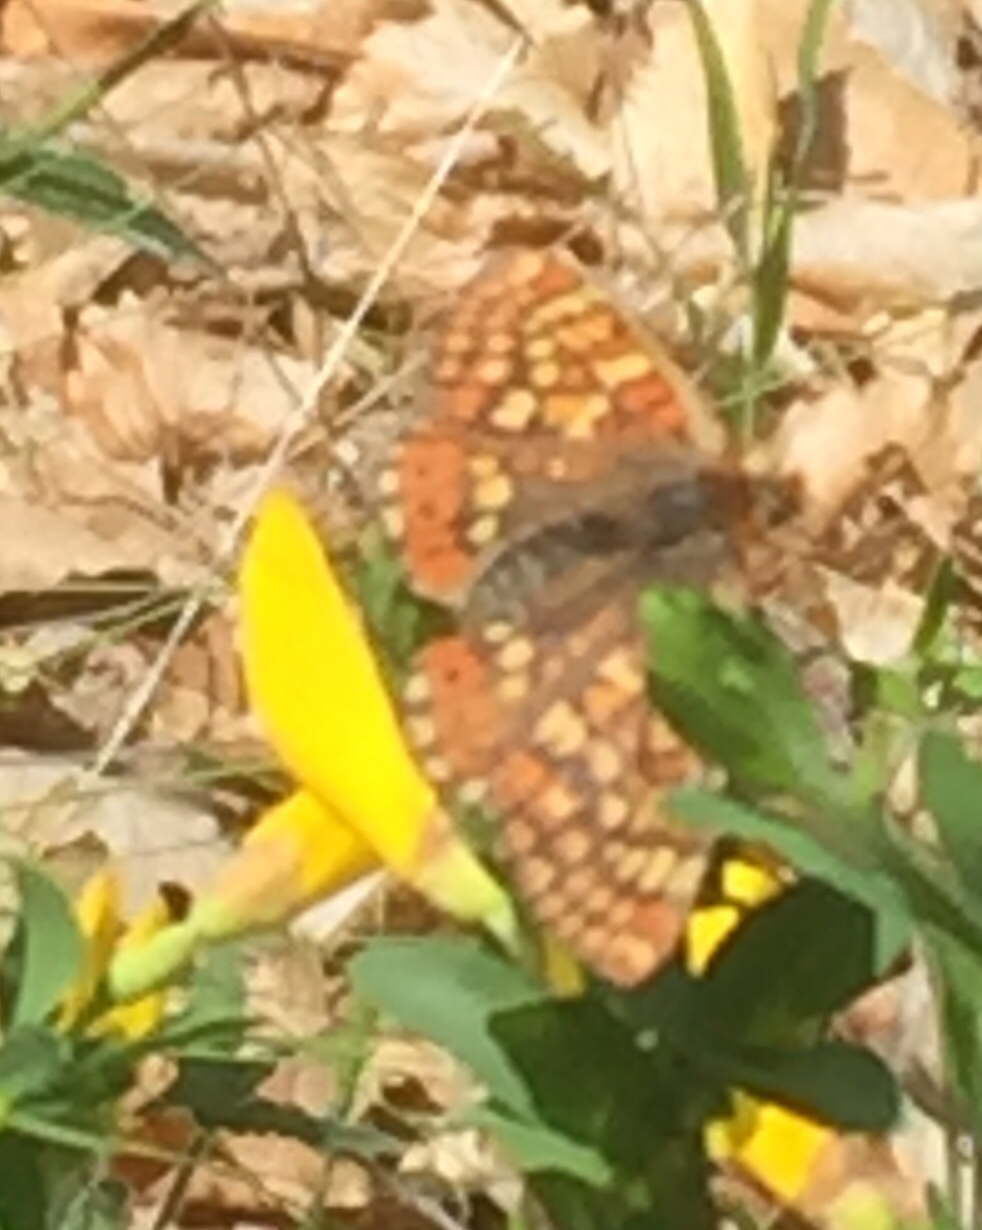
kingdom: Animalia
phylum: Arthropoda
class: Insecta
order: Lepidoptera
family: Nymphalidae
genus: Euphydryas
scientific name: Euphydryas aurinia
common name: Marsh fritillary
